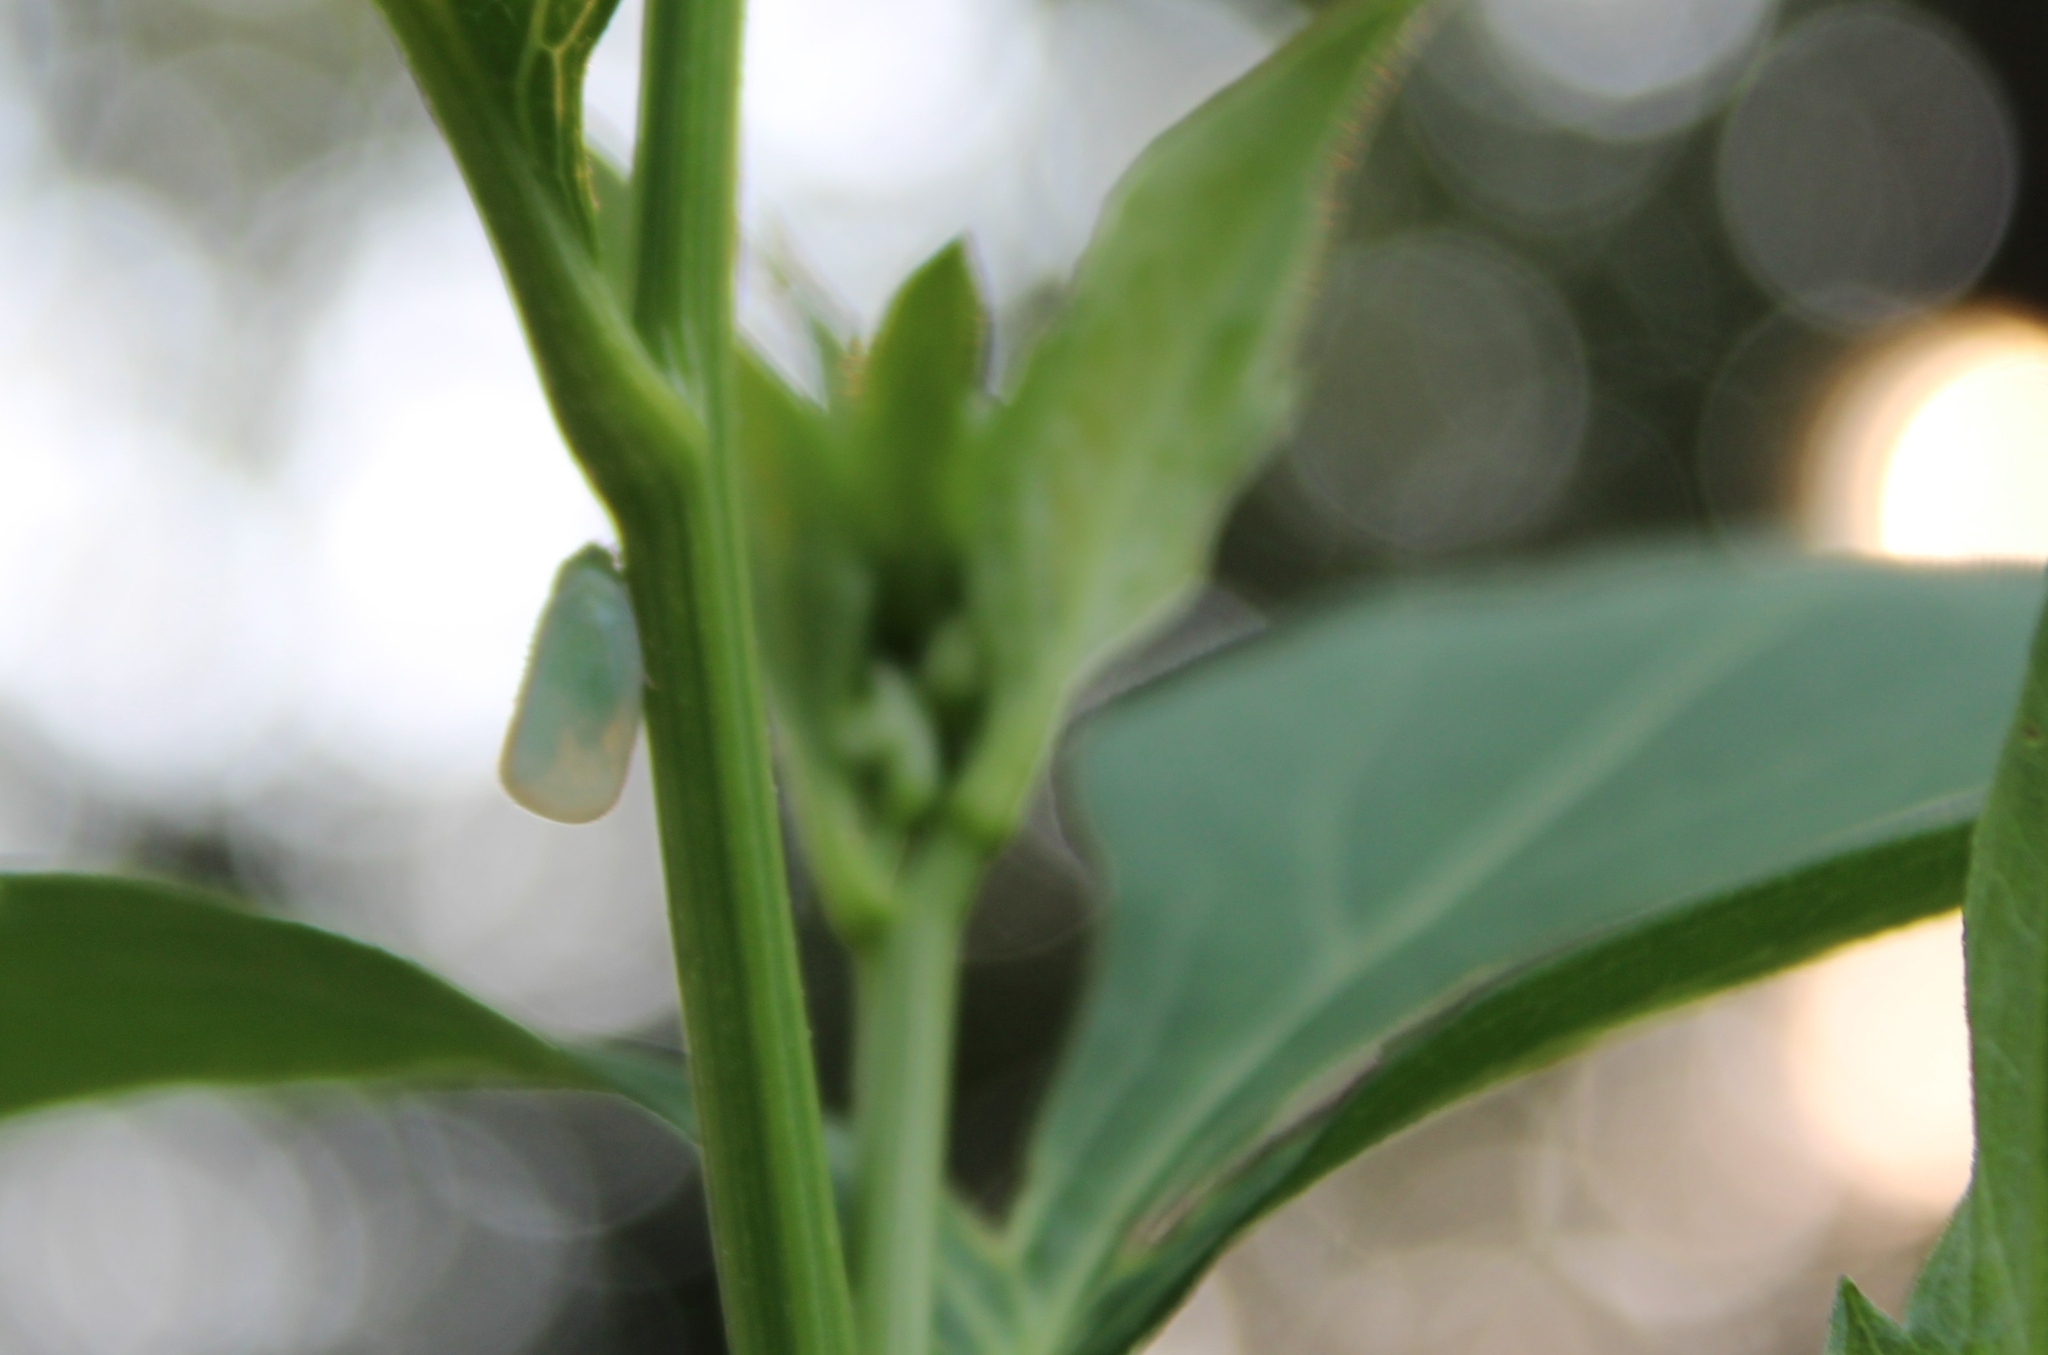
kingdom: Animalia
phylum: Arthropoda
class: Insecta
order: Hemiptera
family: Flatidae
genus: Ormenoides
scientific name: Ormenoides venusta
